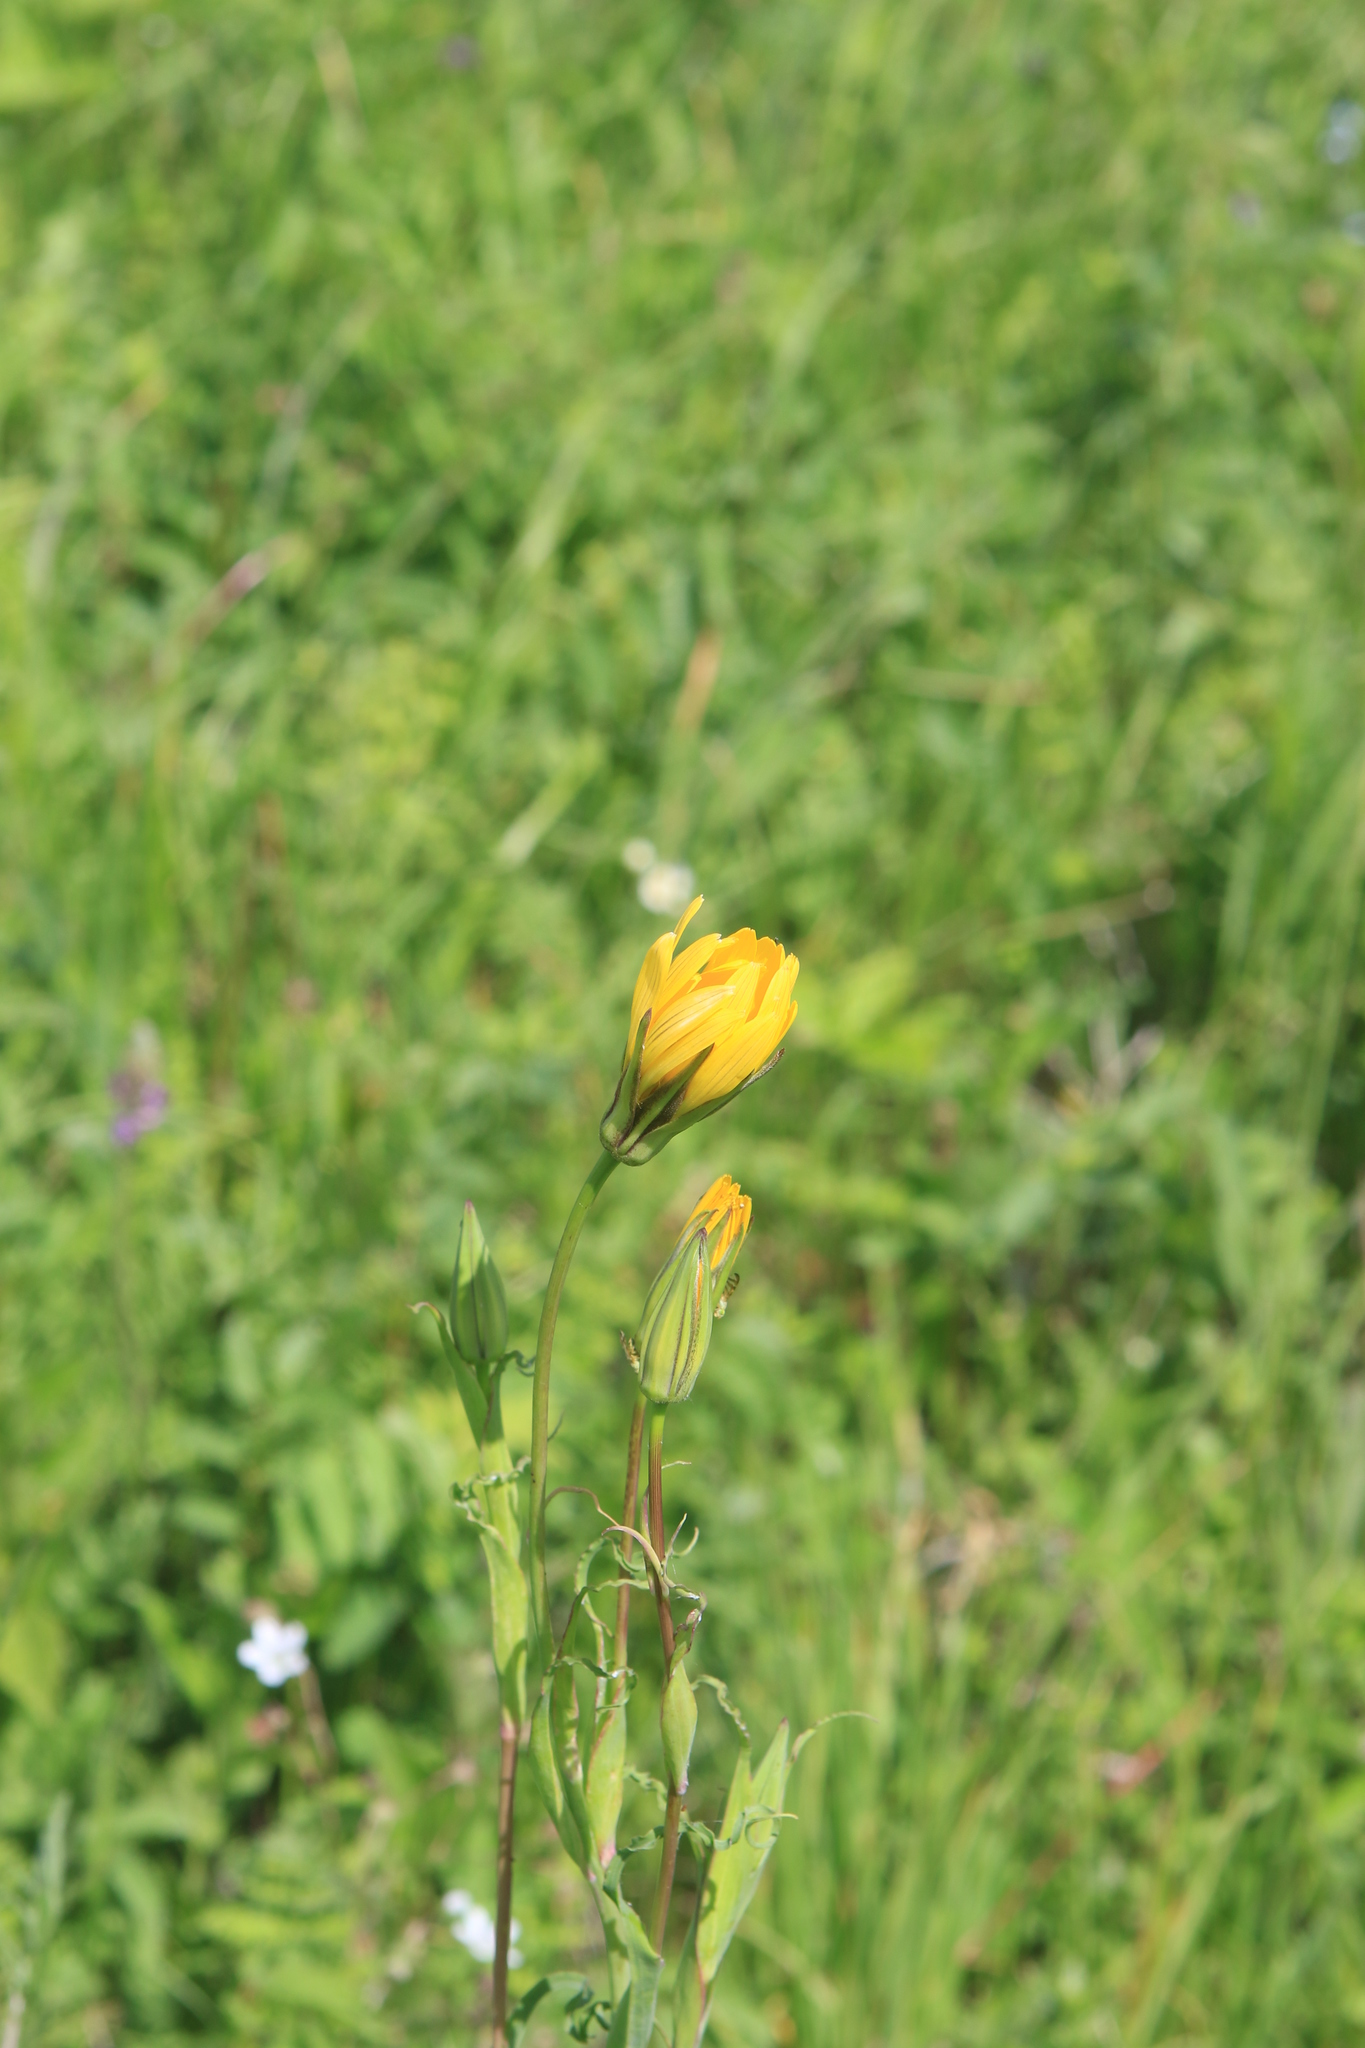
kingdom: Plantae
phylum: Tracheophyta
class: Magnoliopsida
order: Asterales
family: Asteraceae
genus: Tragopogon
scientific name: Tragopogon orientalis
